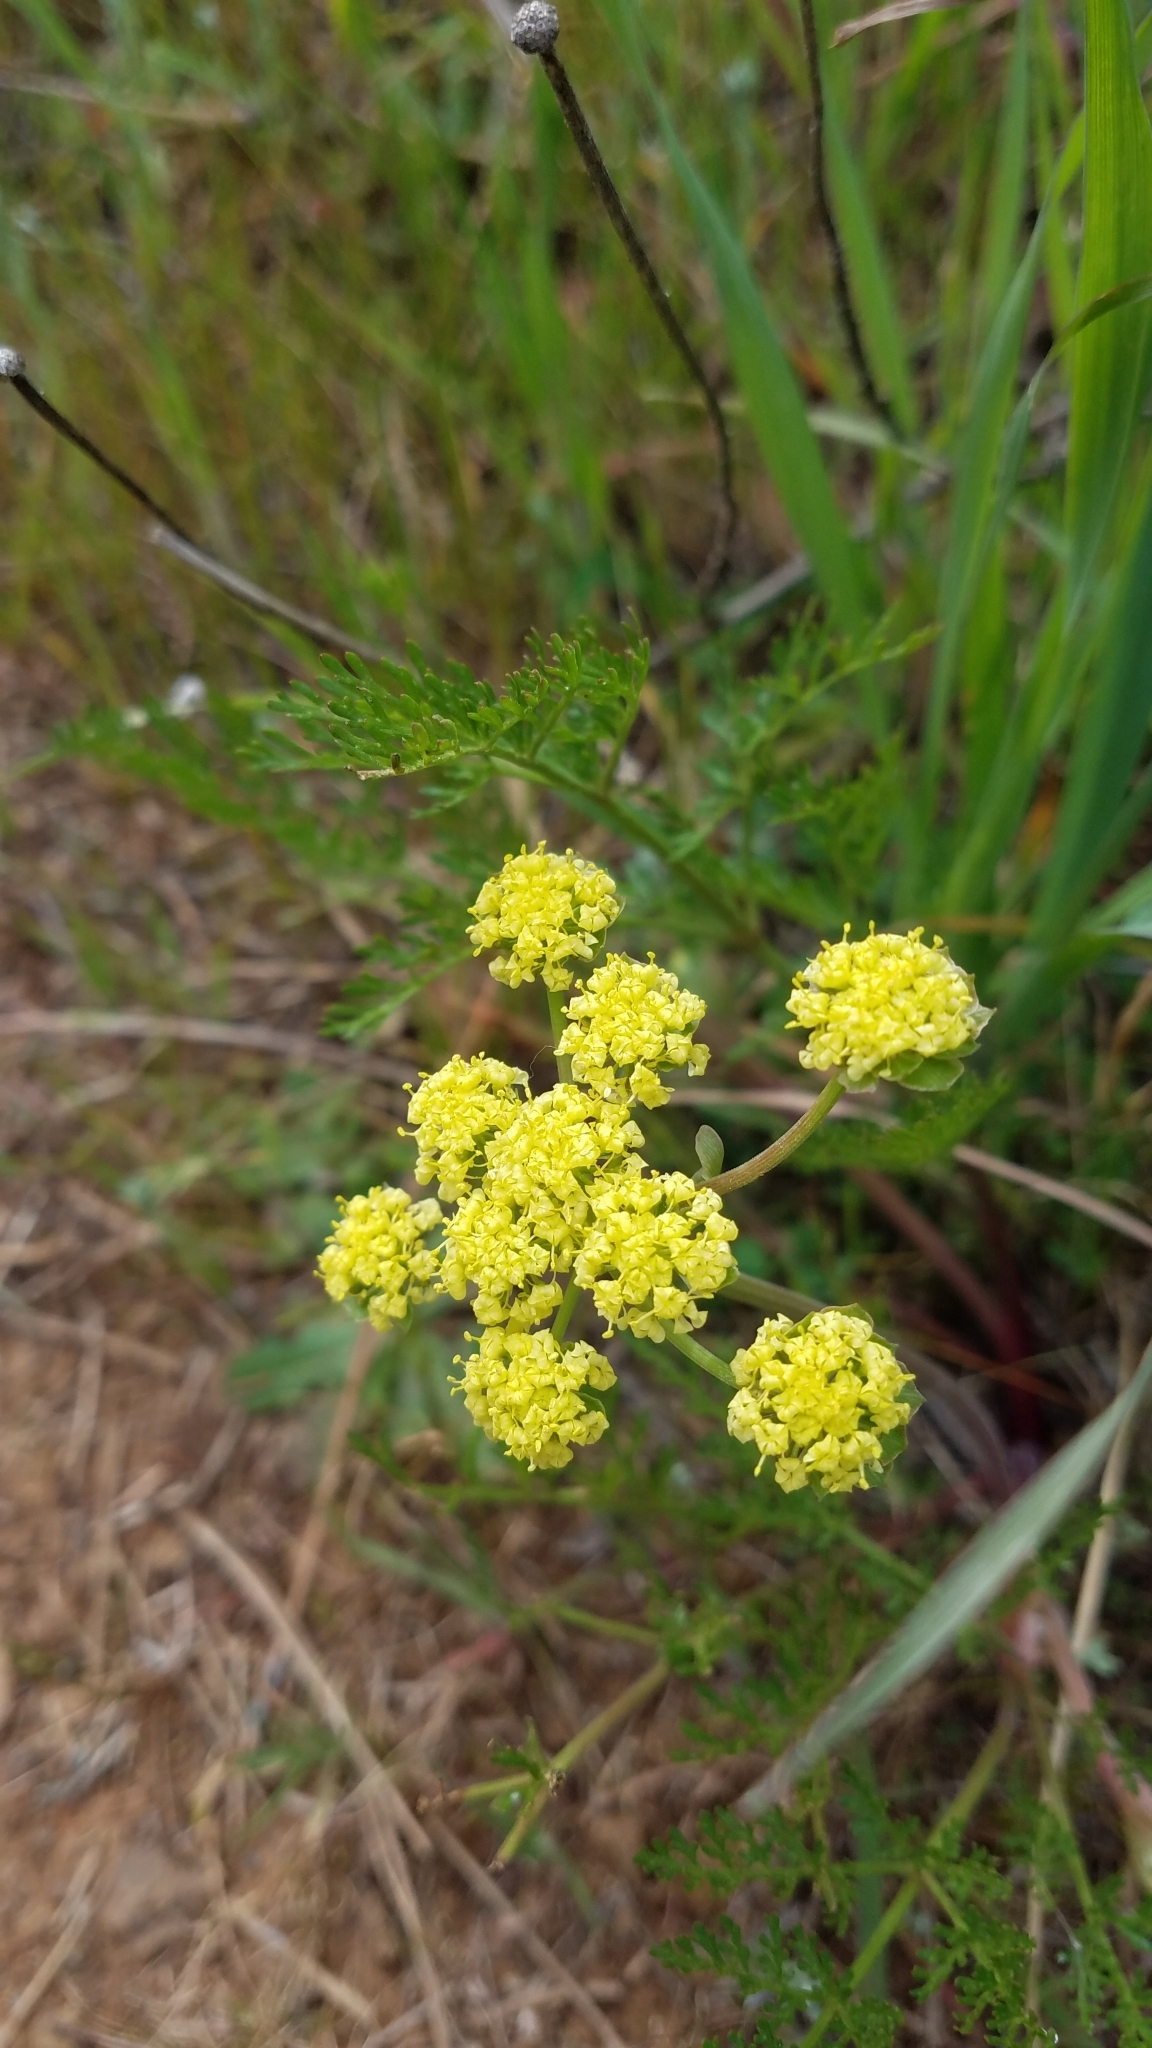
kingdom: Plantae
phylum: Tracheophyta
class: Magnoliopsida
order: Apiales
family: Apiaceae
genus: Lomatium
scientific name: Lomatium utriculatum
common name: Fine-leaf desert-parsley
